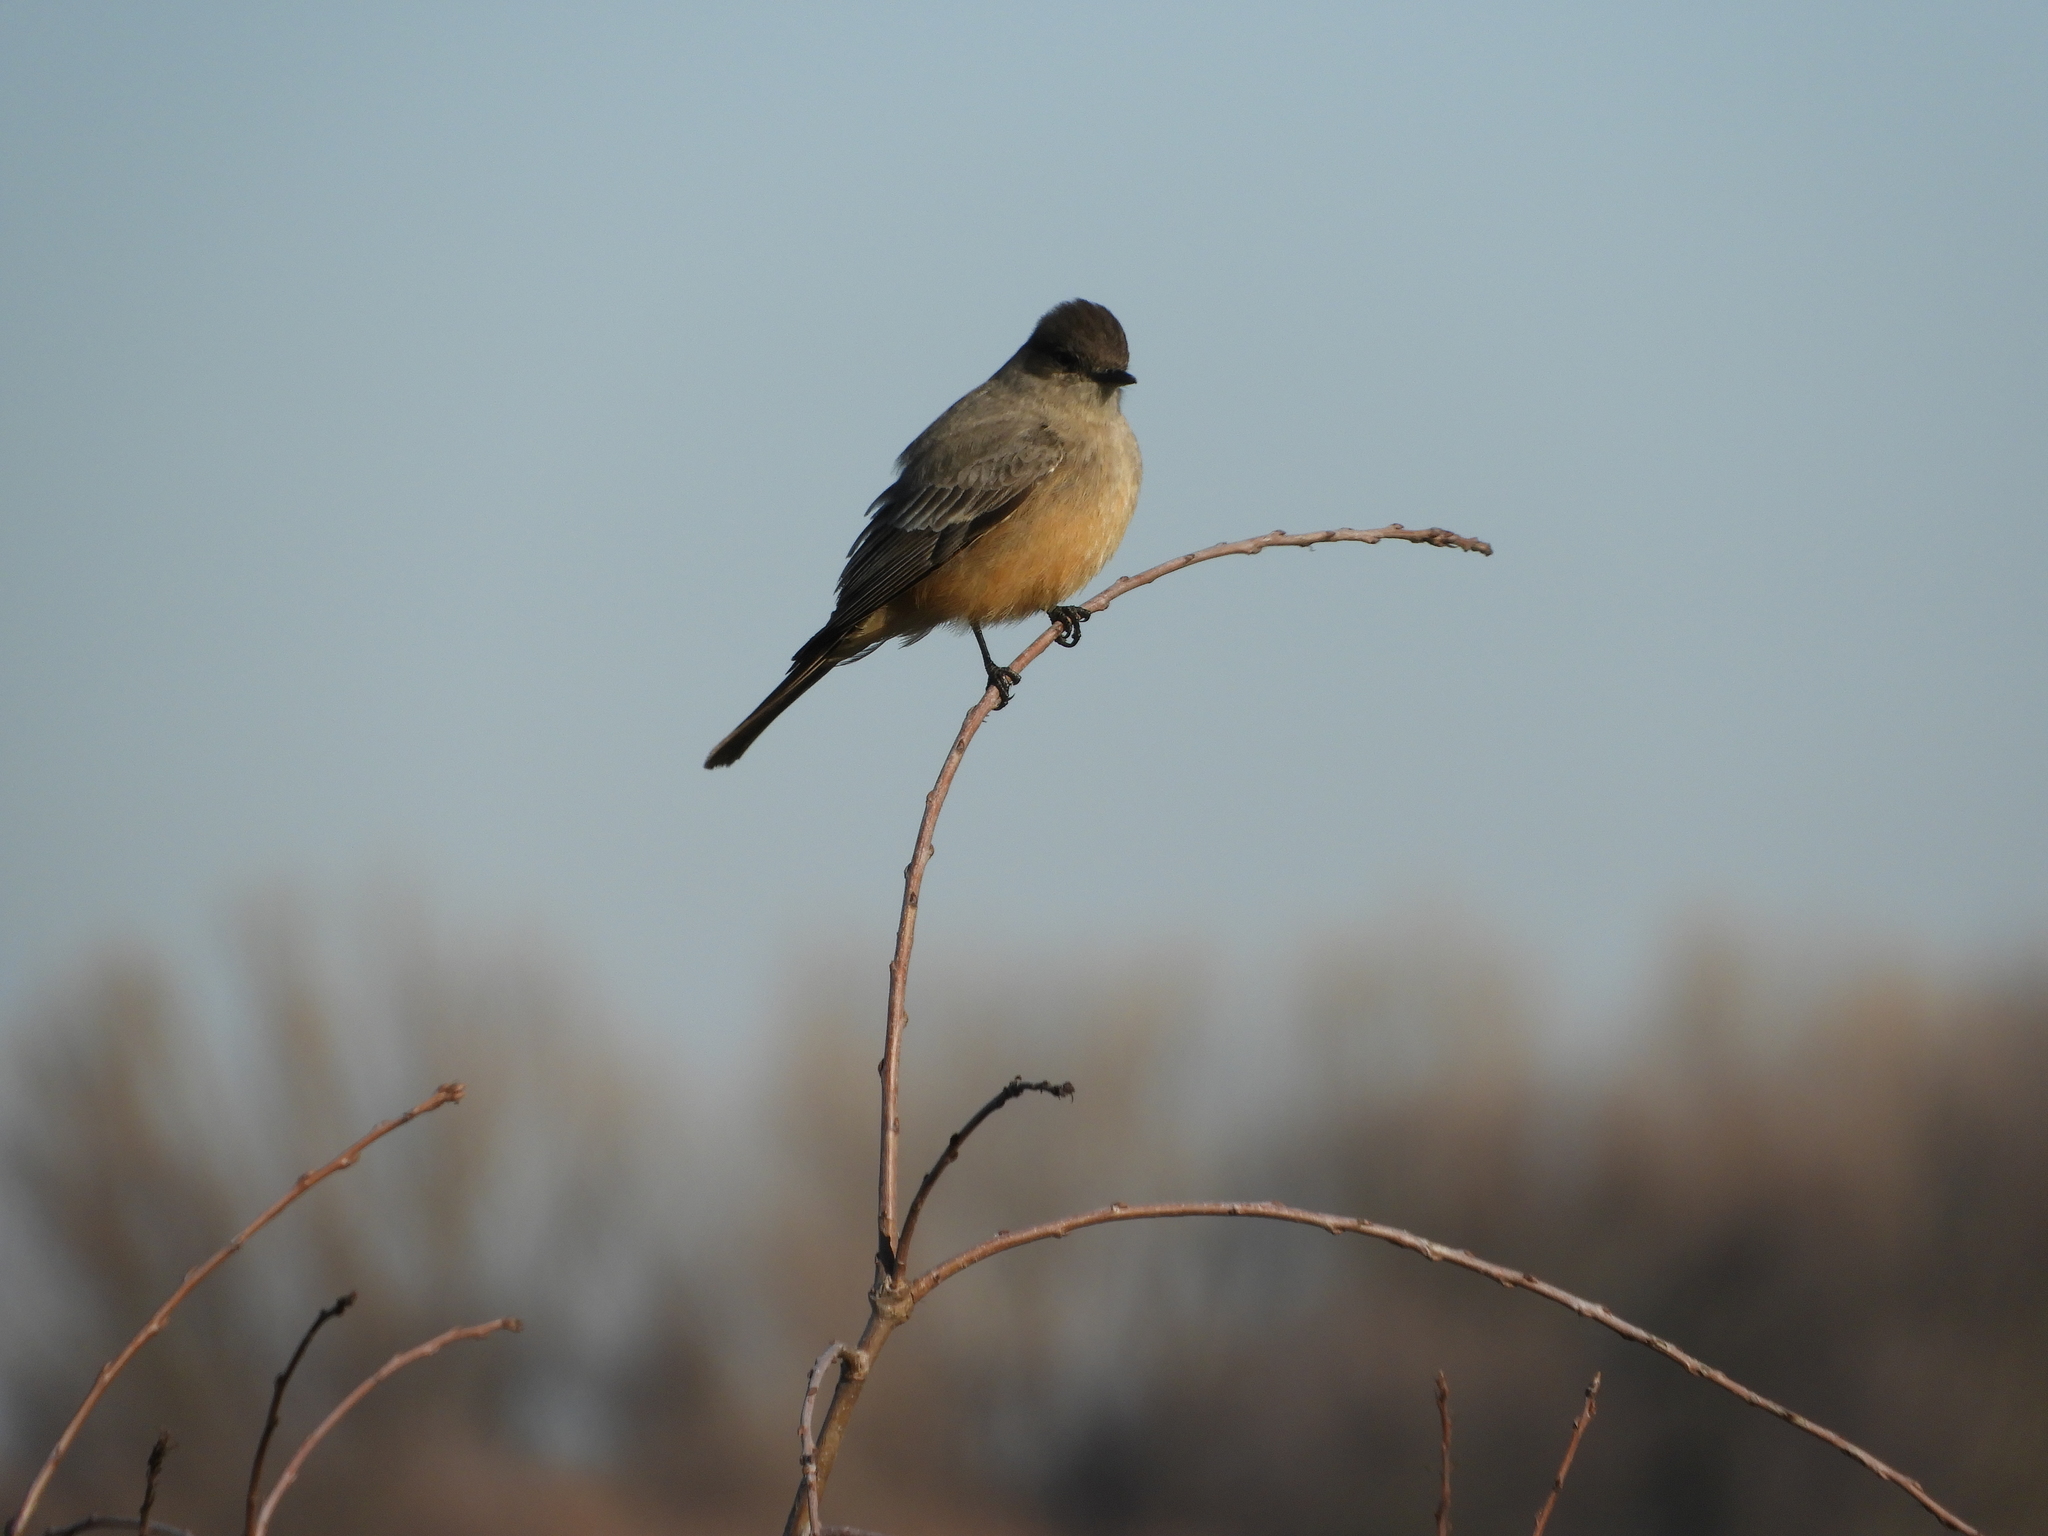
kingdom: Animalia
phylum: Chordata
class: Aves
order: Passeriformes
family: Tyrannidae
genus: Sayornis
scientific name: Sayornis saya
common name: Say's phoebe
